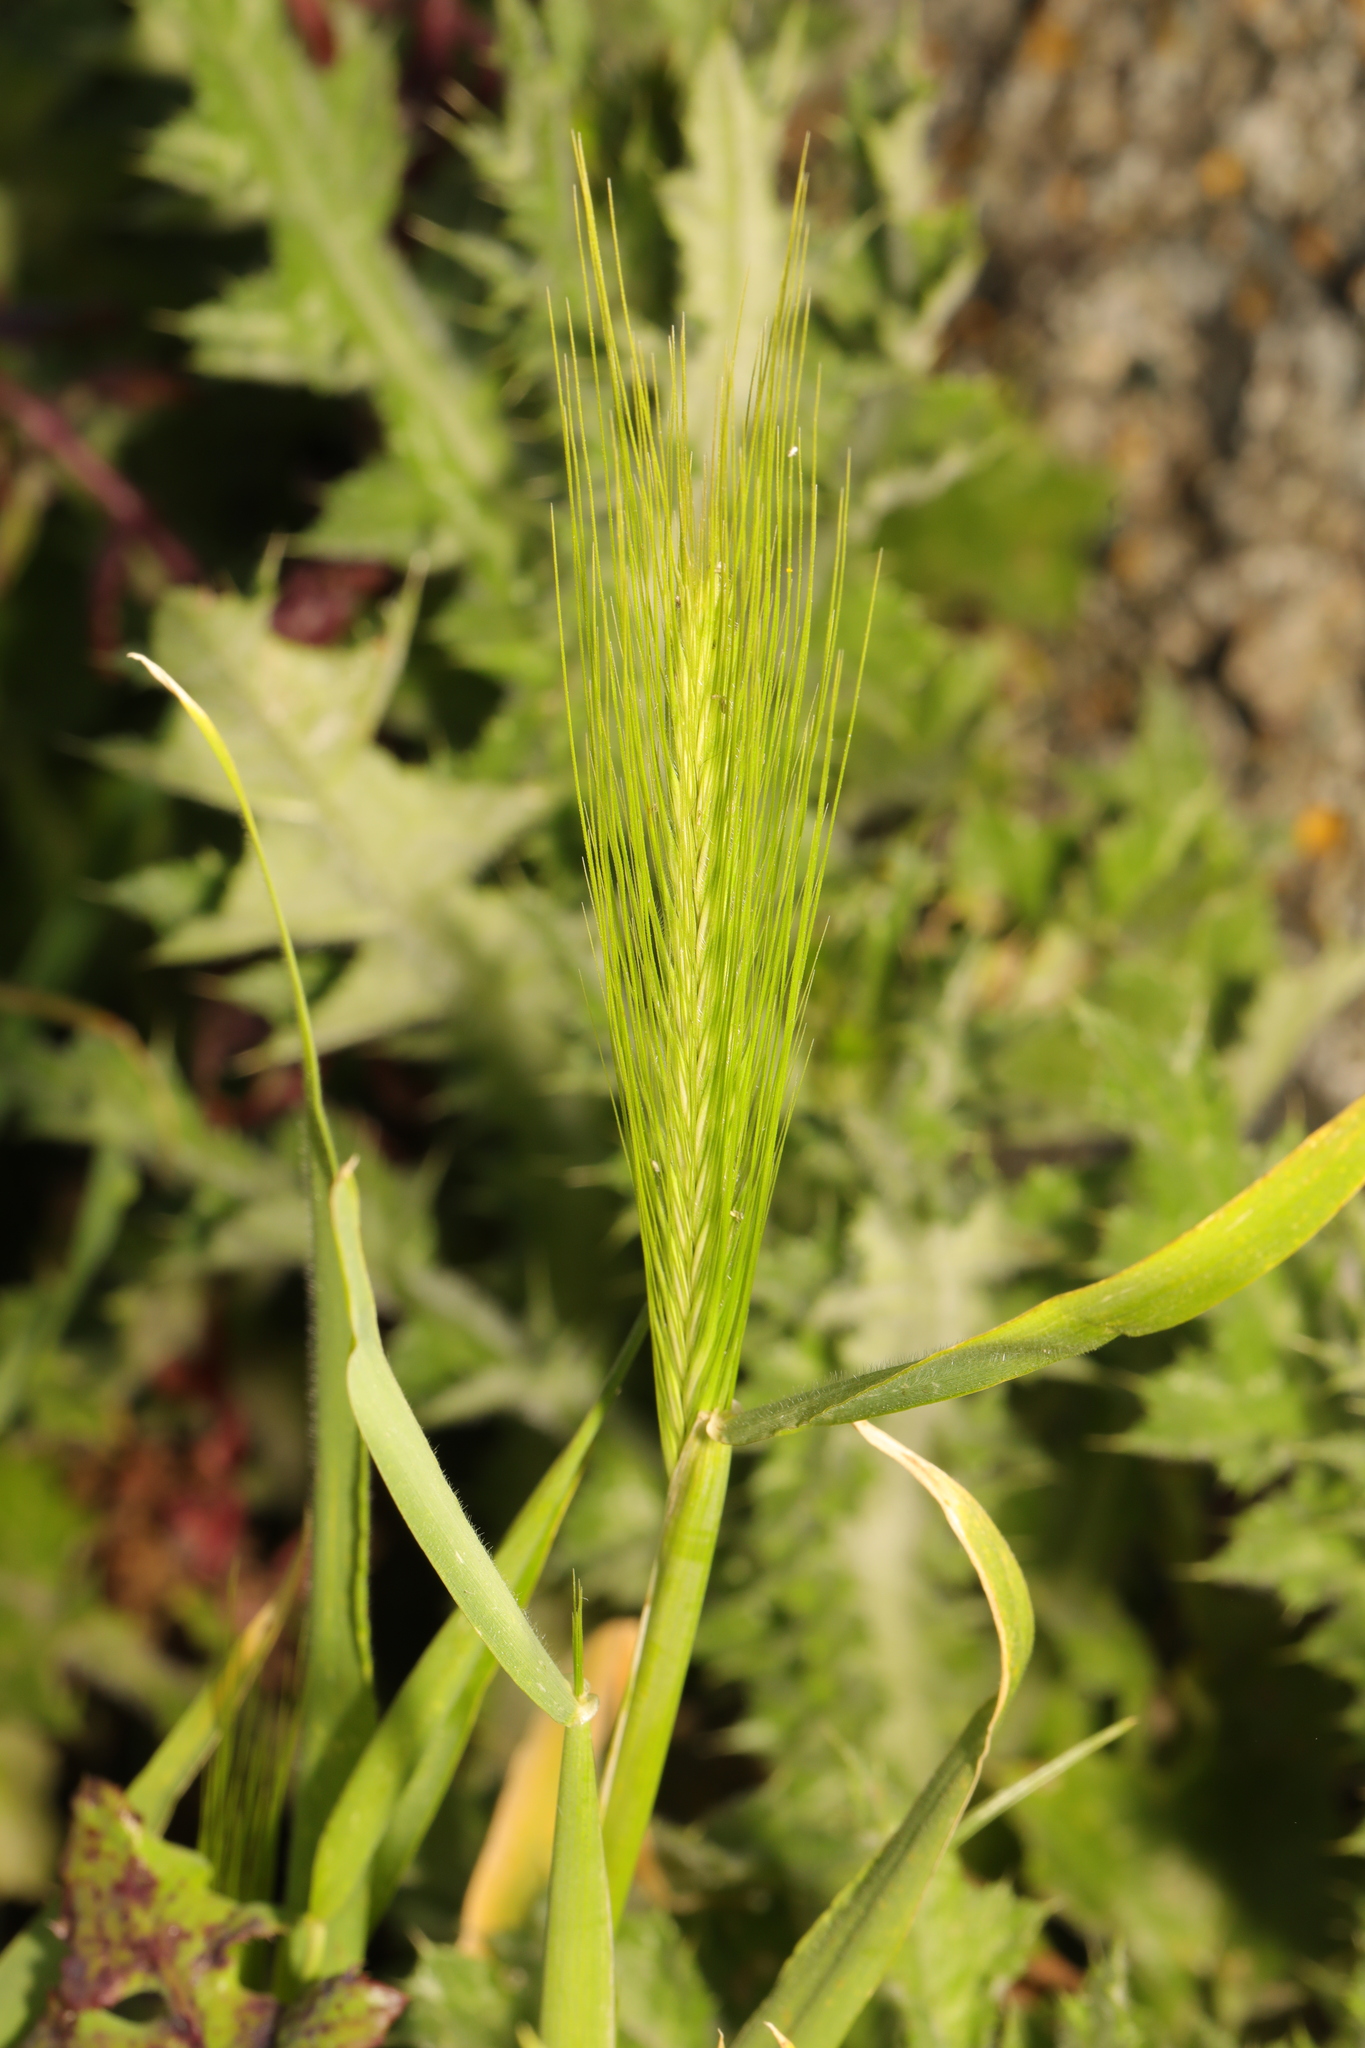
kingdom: Plantae
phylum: Tracheophyta
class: Liliopsida
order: Poales
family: Poaceae
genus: Hordeum
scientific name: Hordeum murinum
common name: Wall barley
